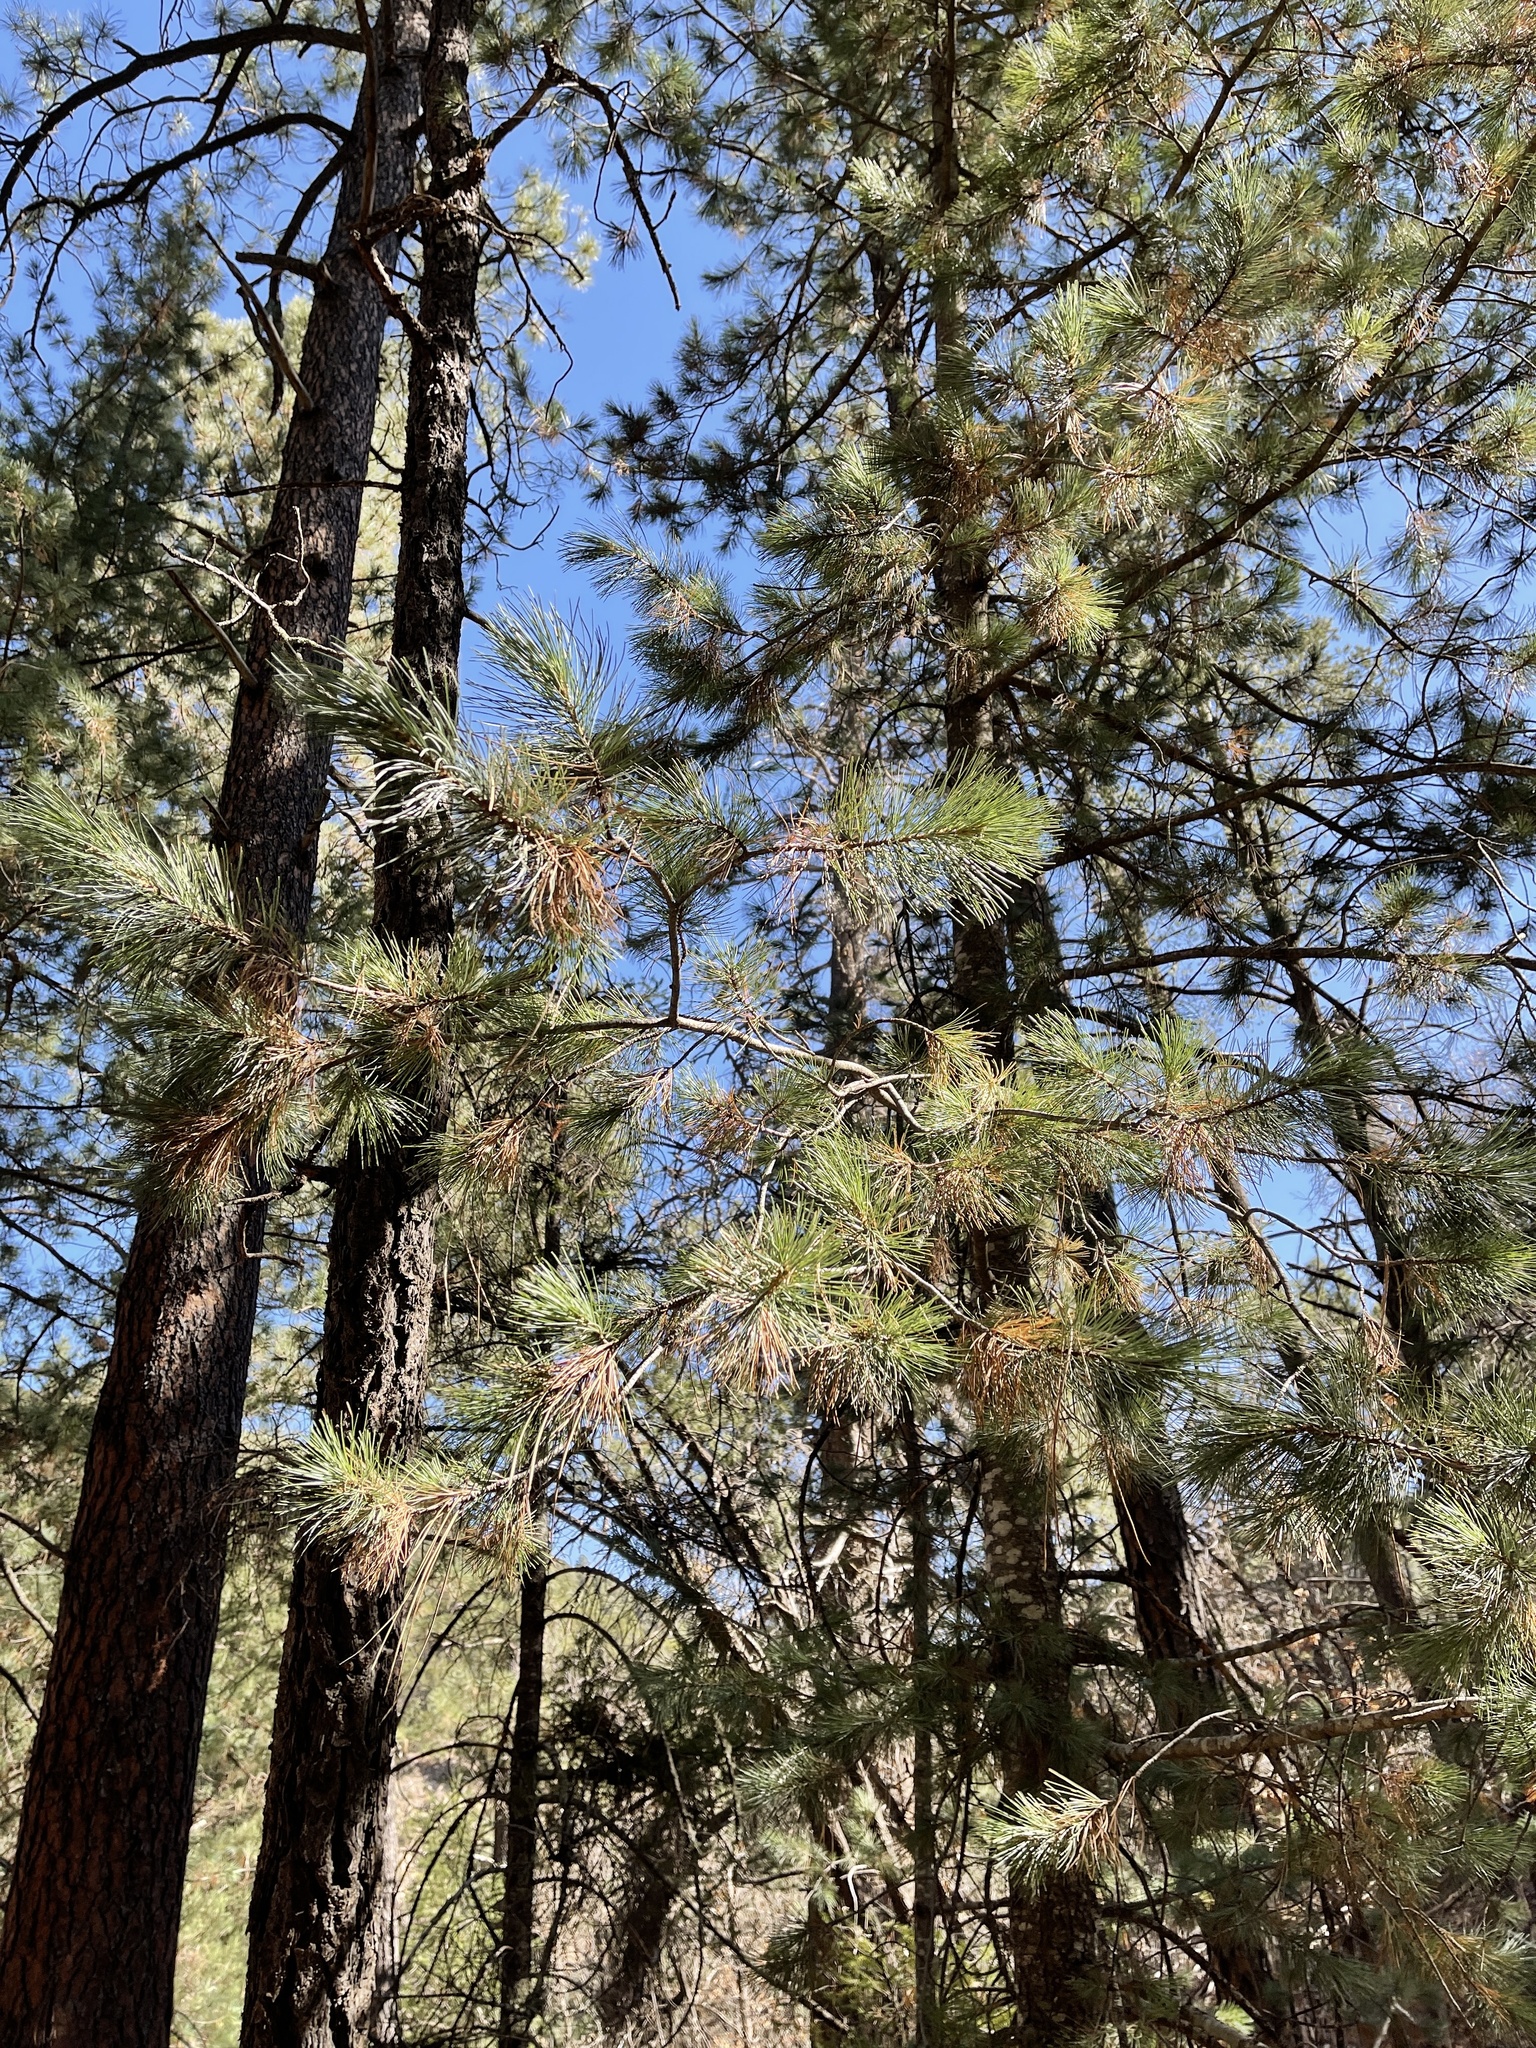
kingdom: Plantae
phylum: Tracheophyta
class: Pinopsida
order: Pinales
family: Pinaceae
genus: Pinus
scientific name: Pinus strobiformis
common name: Southwestern white pine
